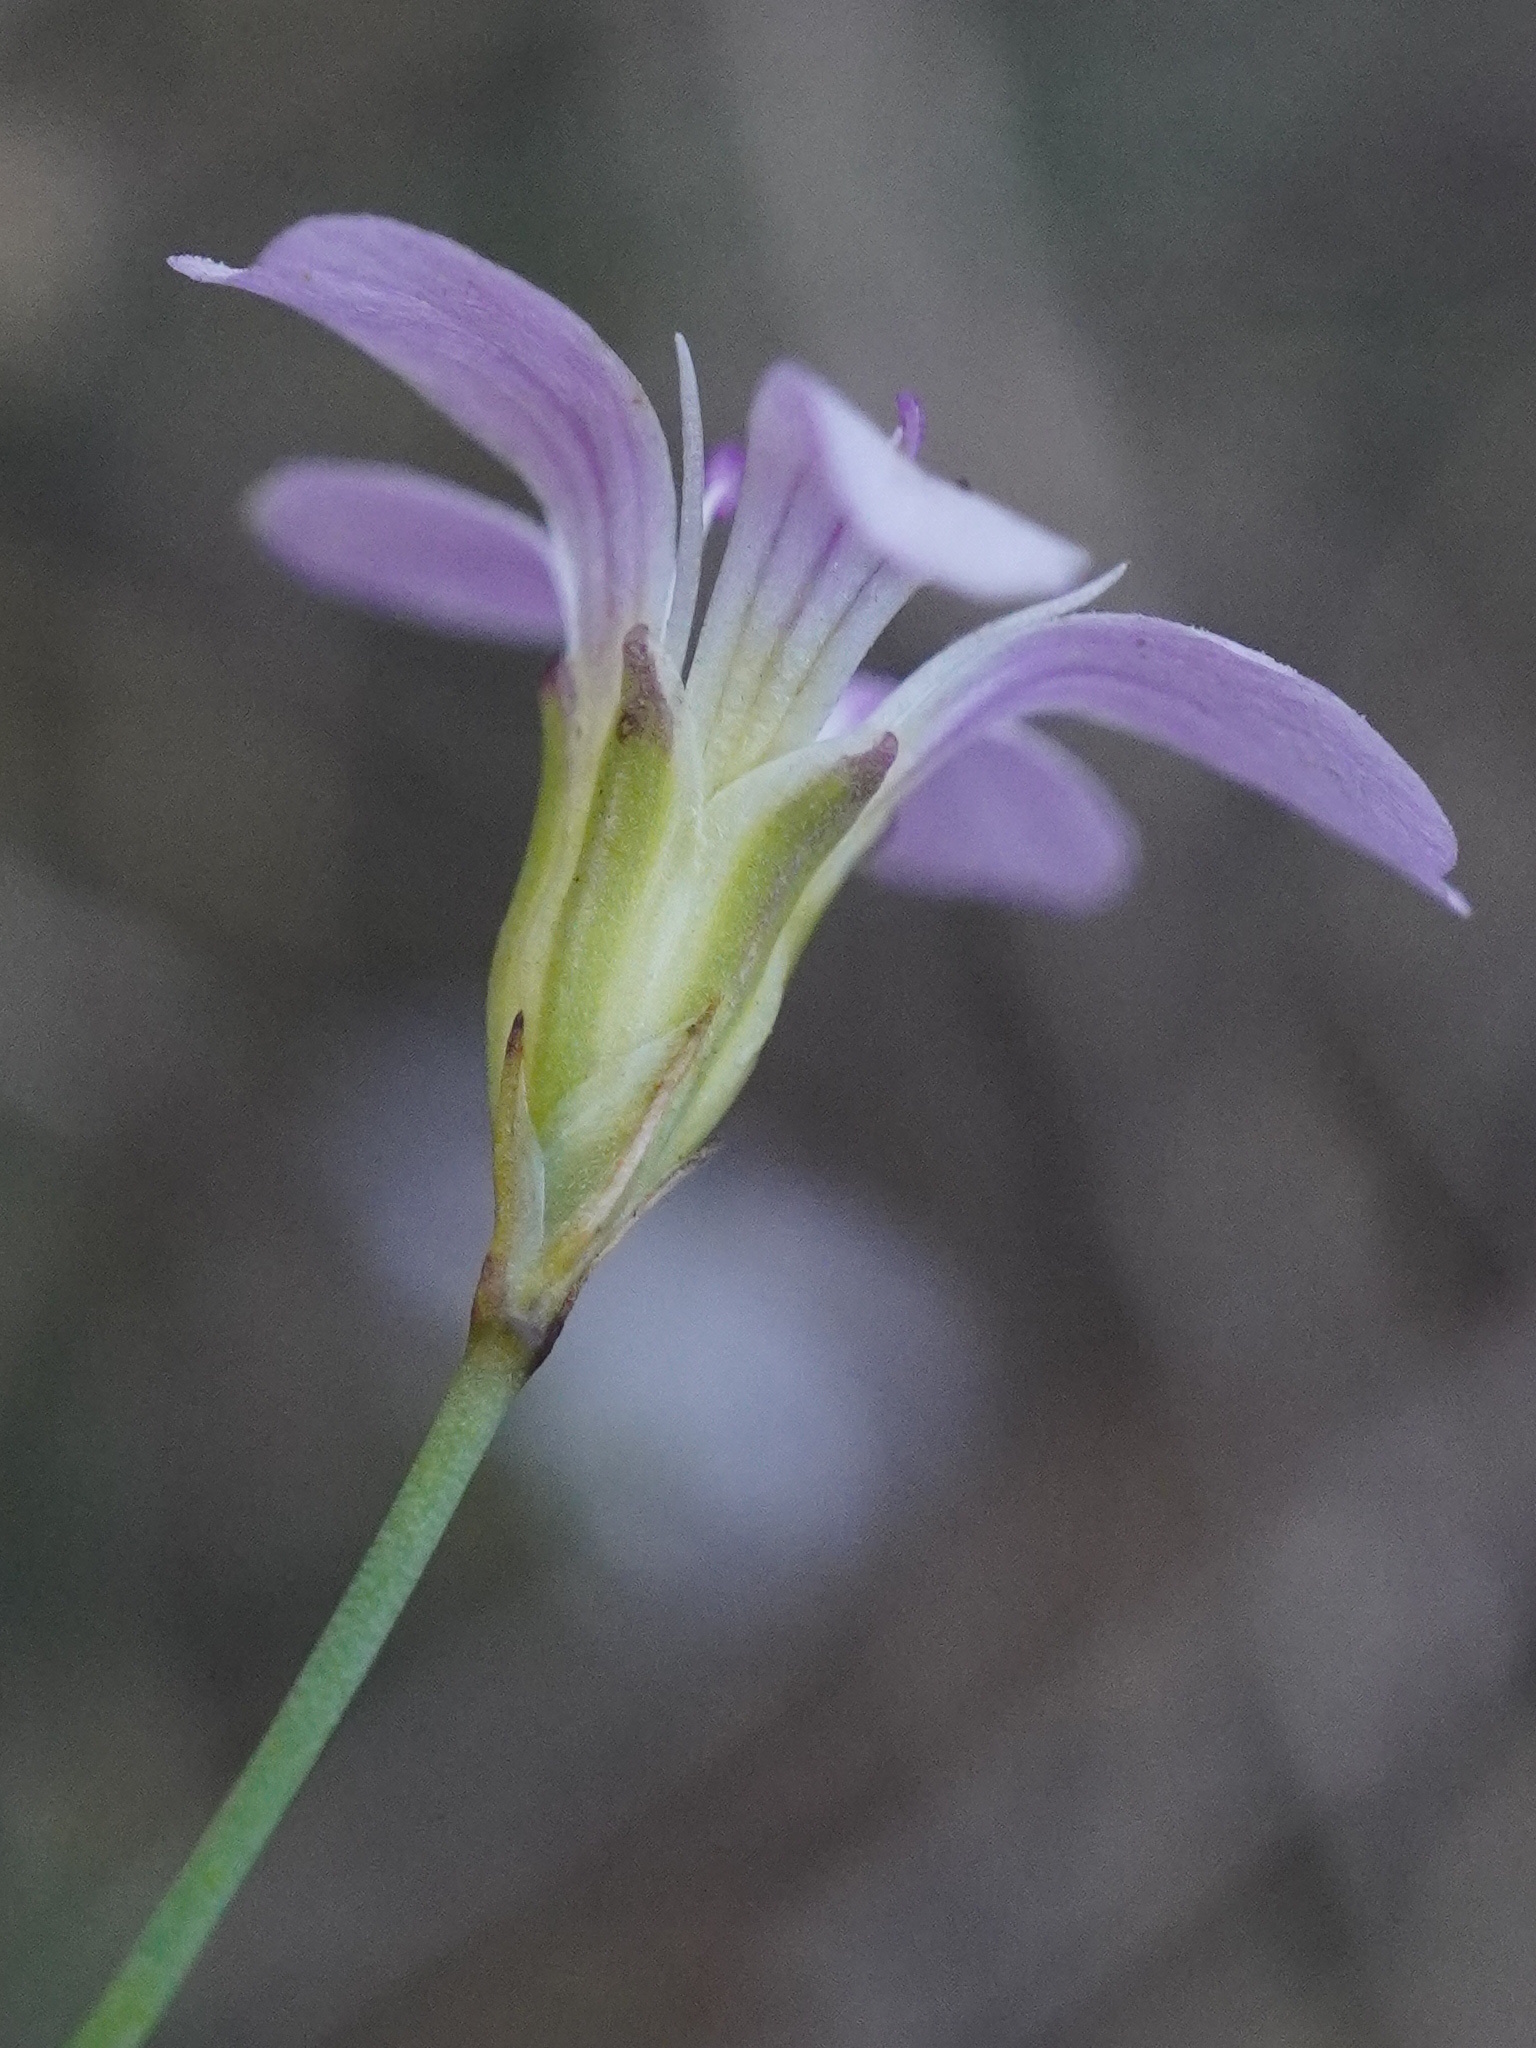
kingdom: Plantae
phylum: Tracheophyta
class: Magnoliopsida
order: Caryophyllales
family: Caryophyllaceae
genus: Petrorhagia
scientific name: Petrorhagia saxifraga
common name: Tunicflower
